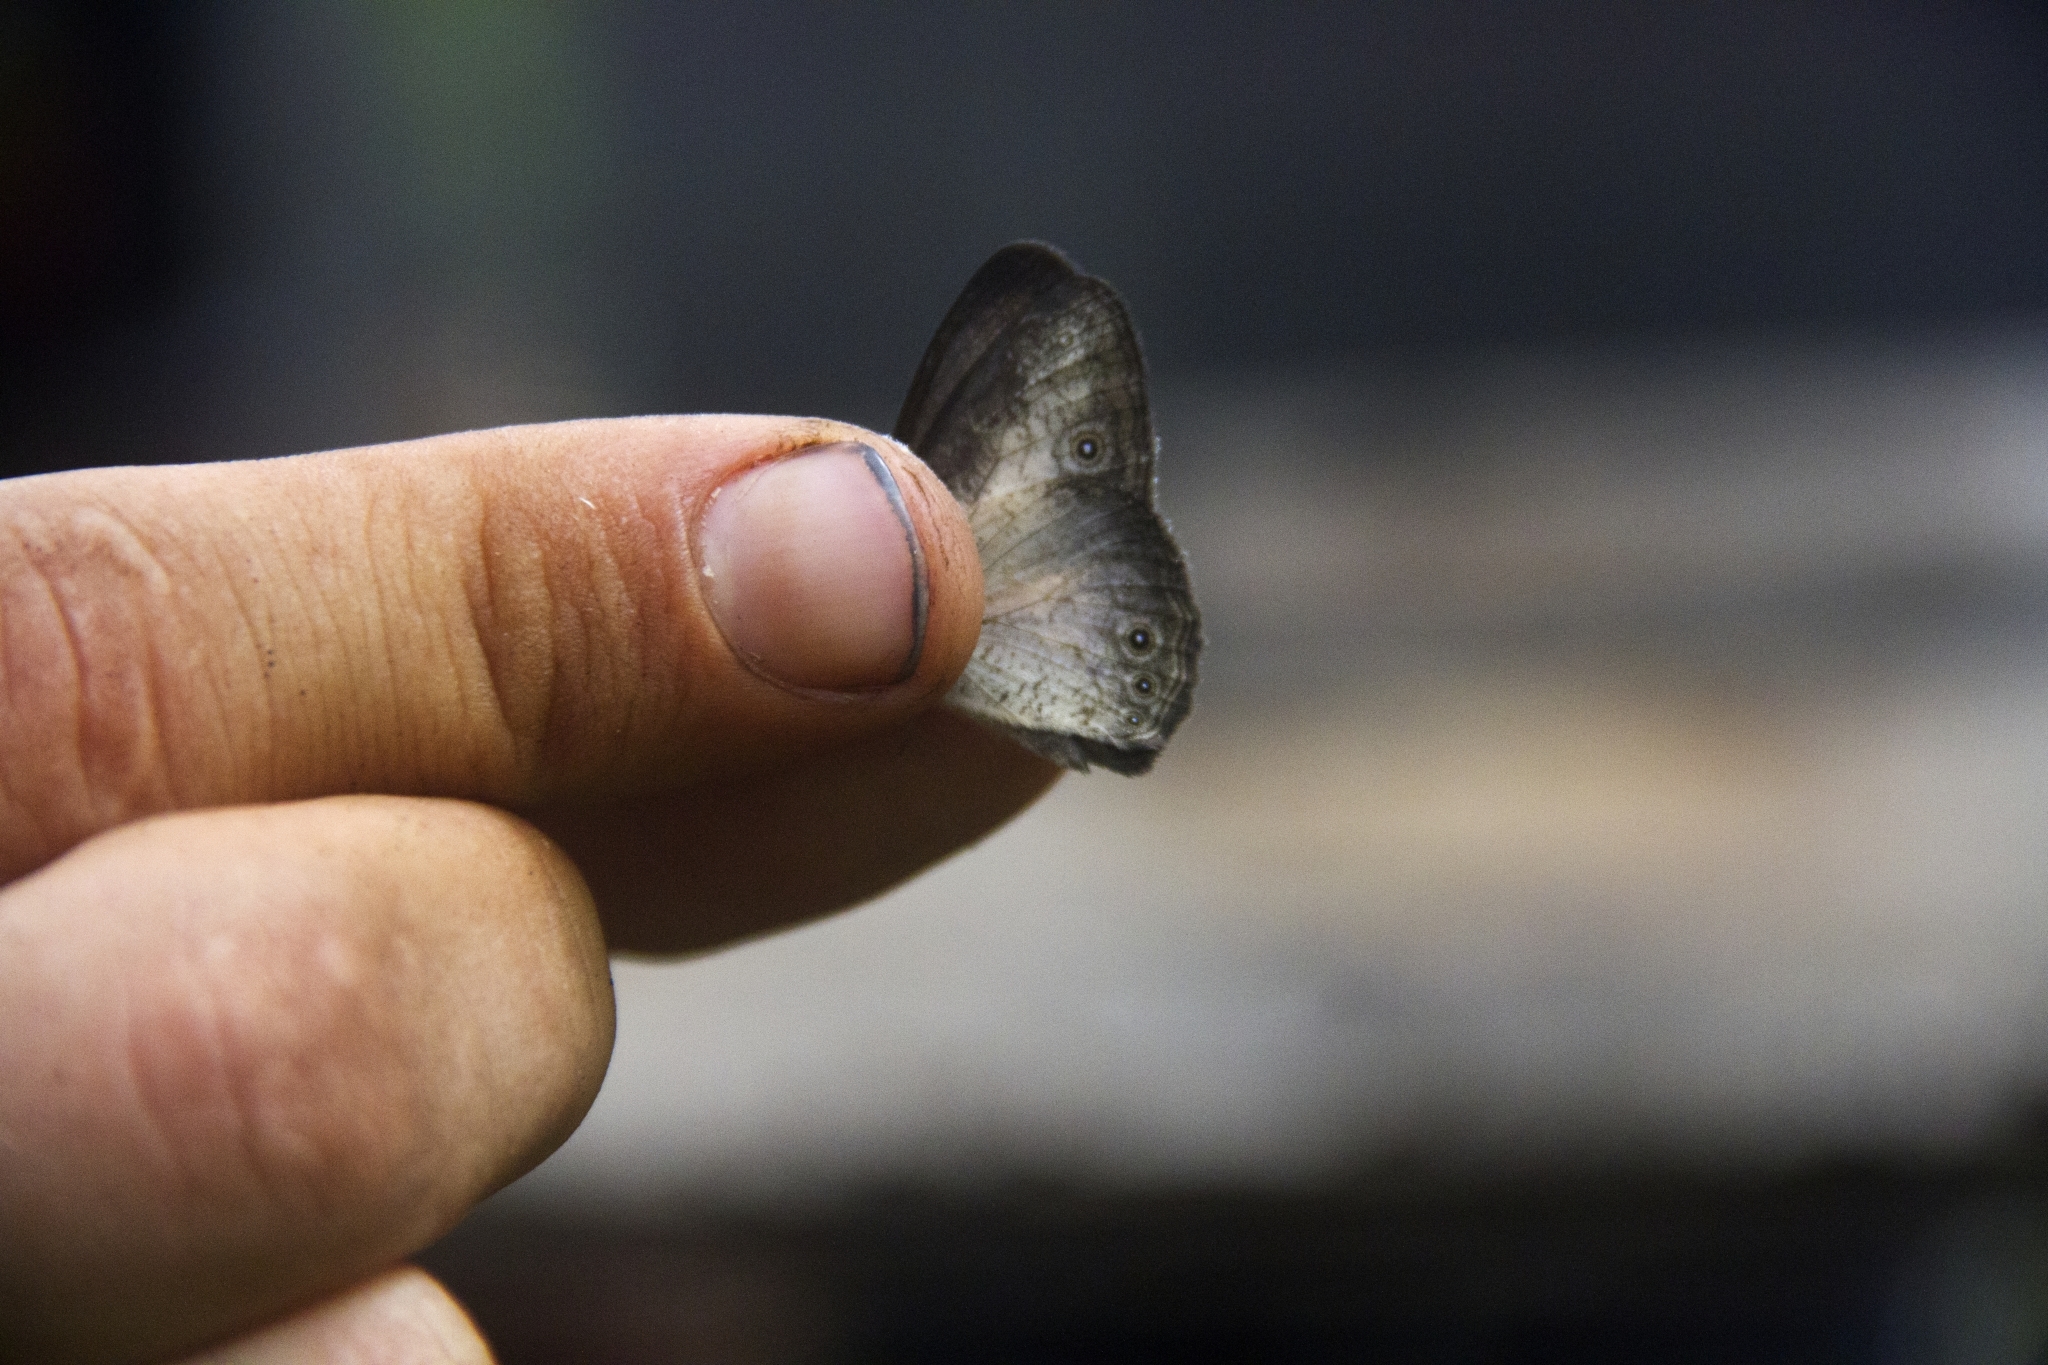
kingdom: Animalia
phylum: Arthropoda
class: Insecta
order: Lepidoptera
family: Nymphalidae
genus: Bicyclus
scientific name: Bicyclus dorothea
